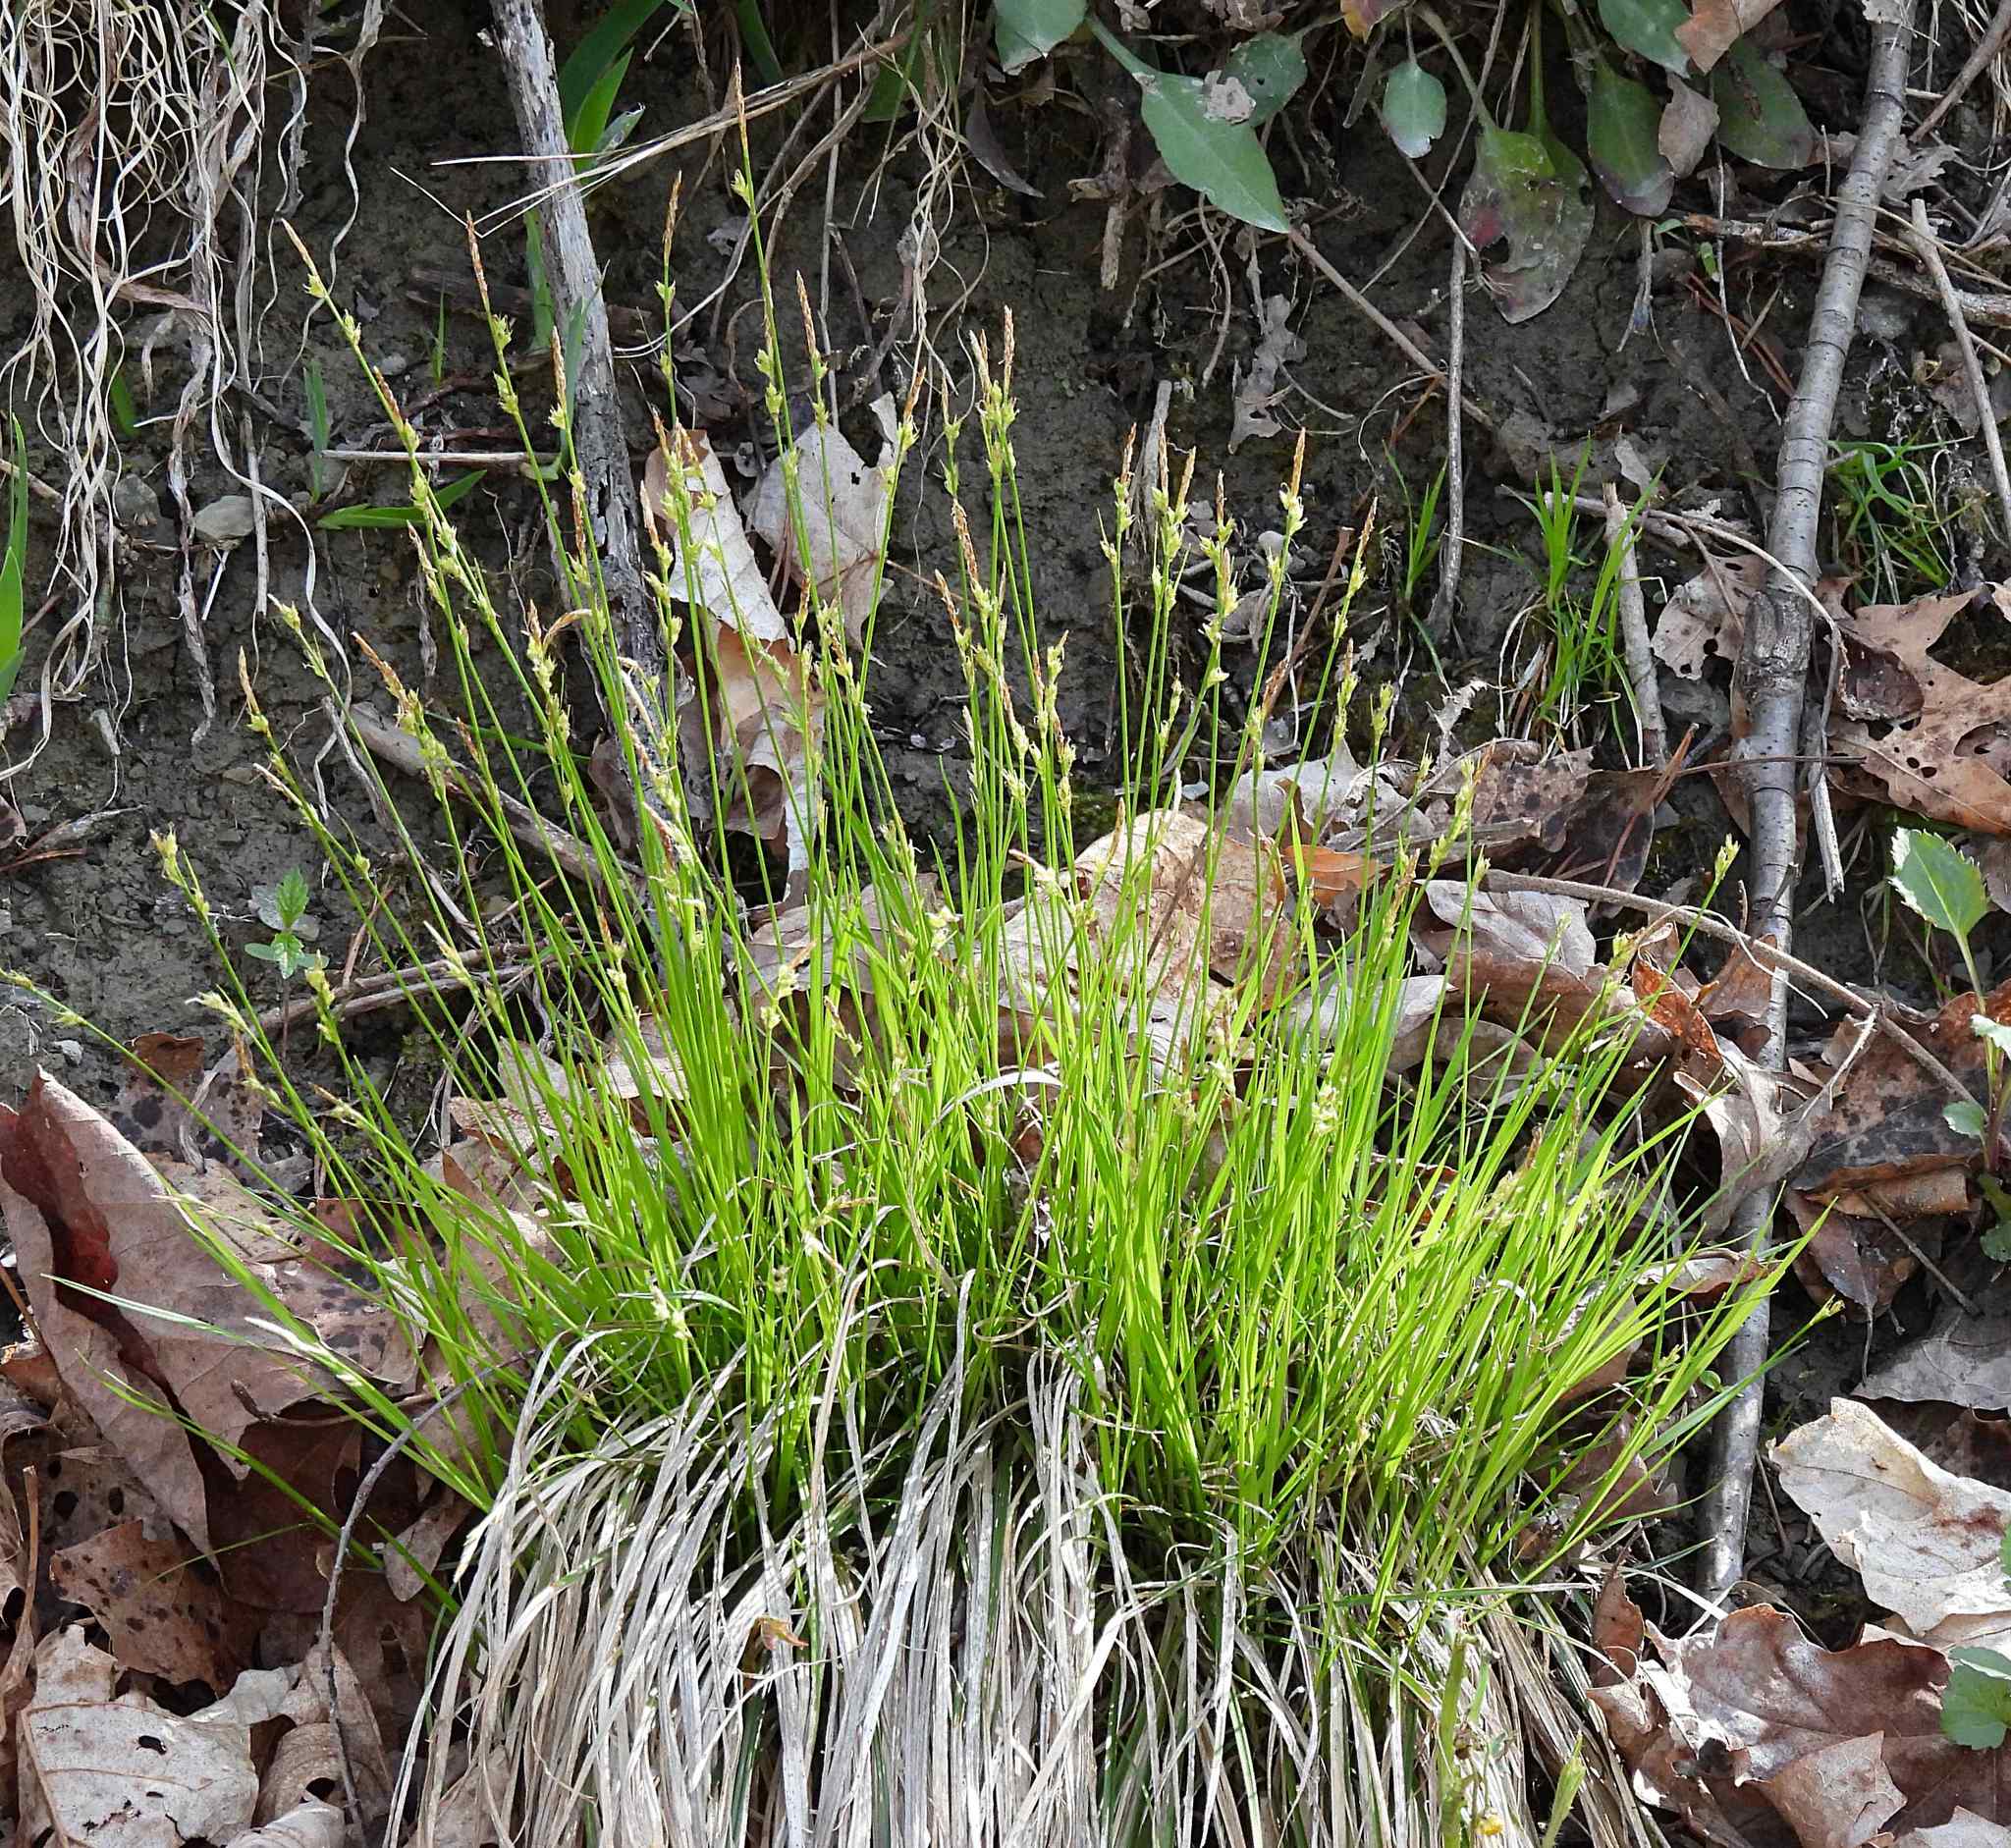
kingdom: Plantae
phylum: Tracheophyta
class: Liliopsida
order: Poales
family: Cyperaceae
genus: Carex
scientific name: Carex communis
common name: Colonial oak sedge
